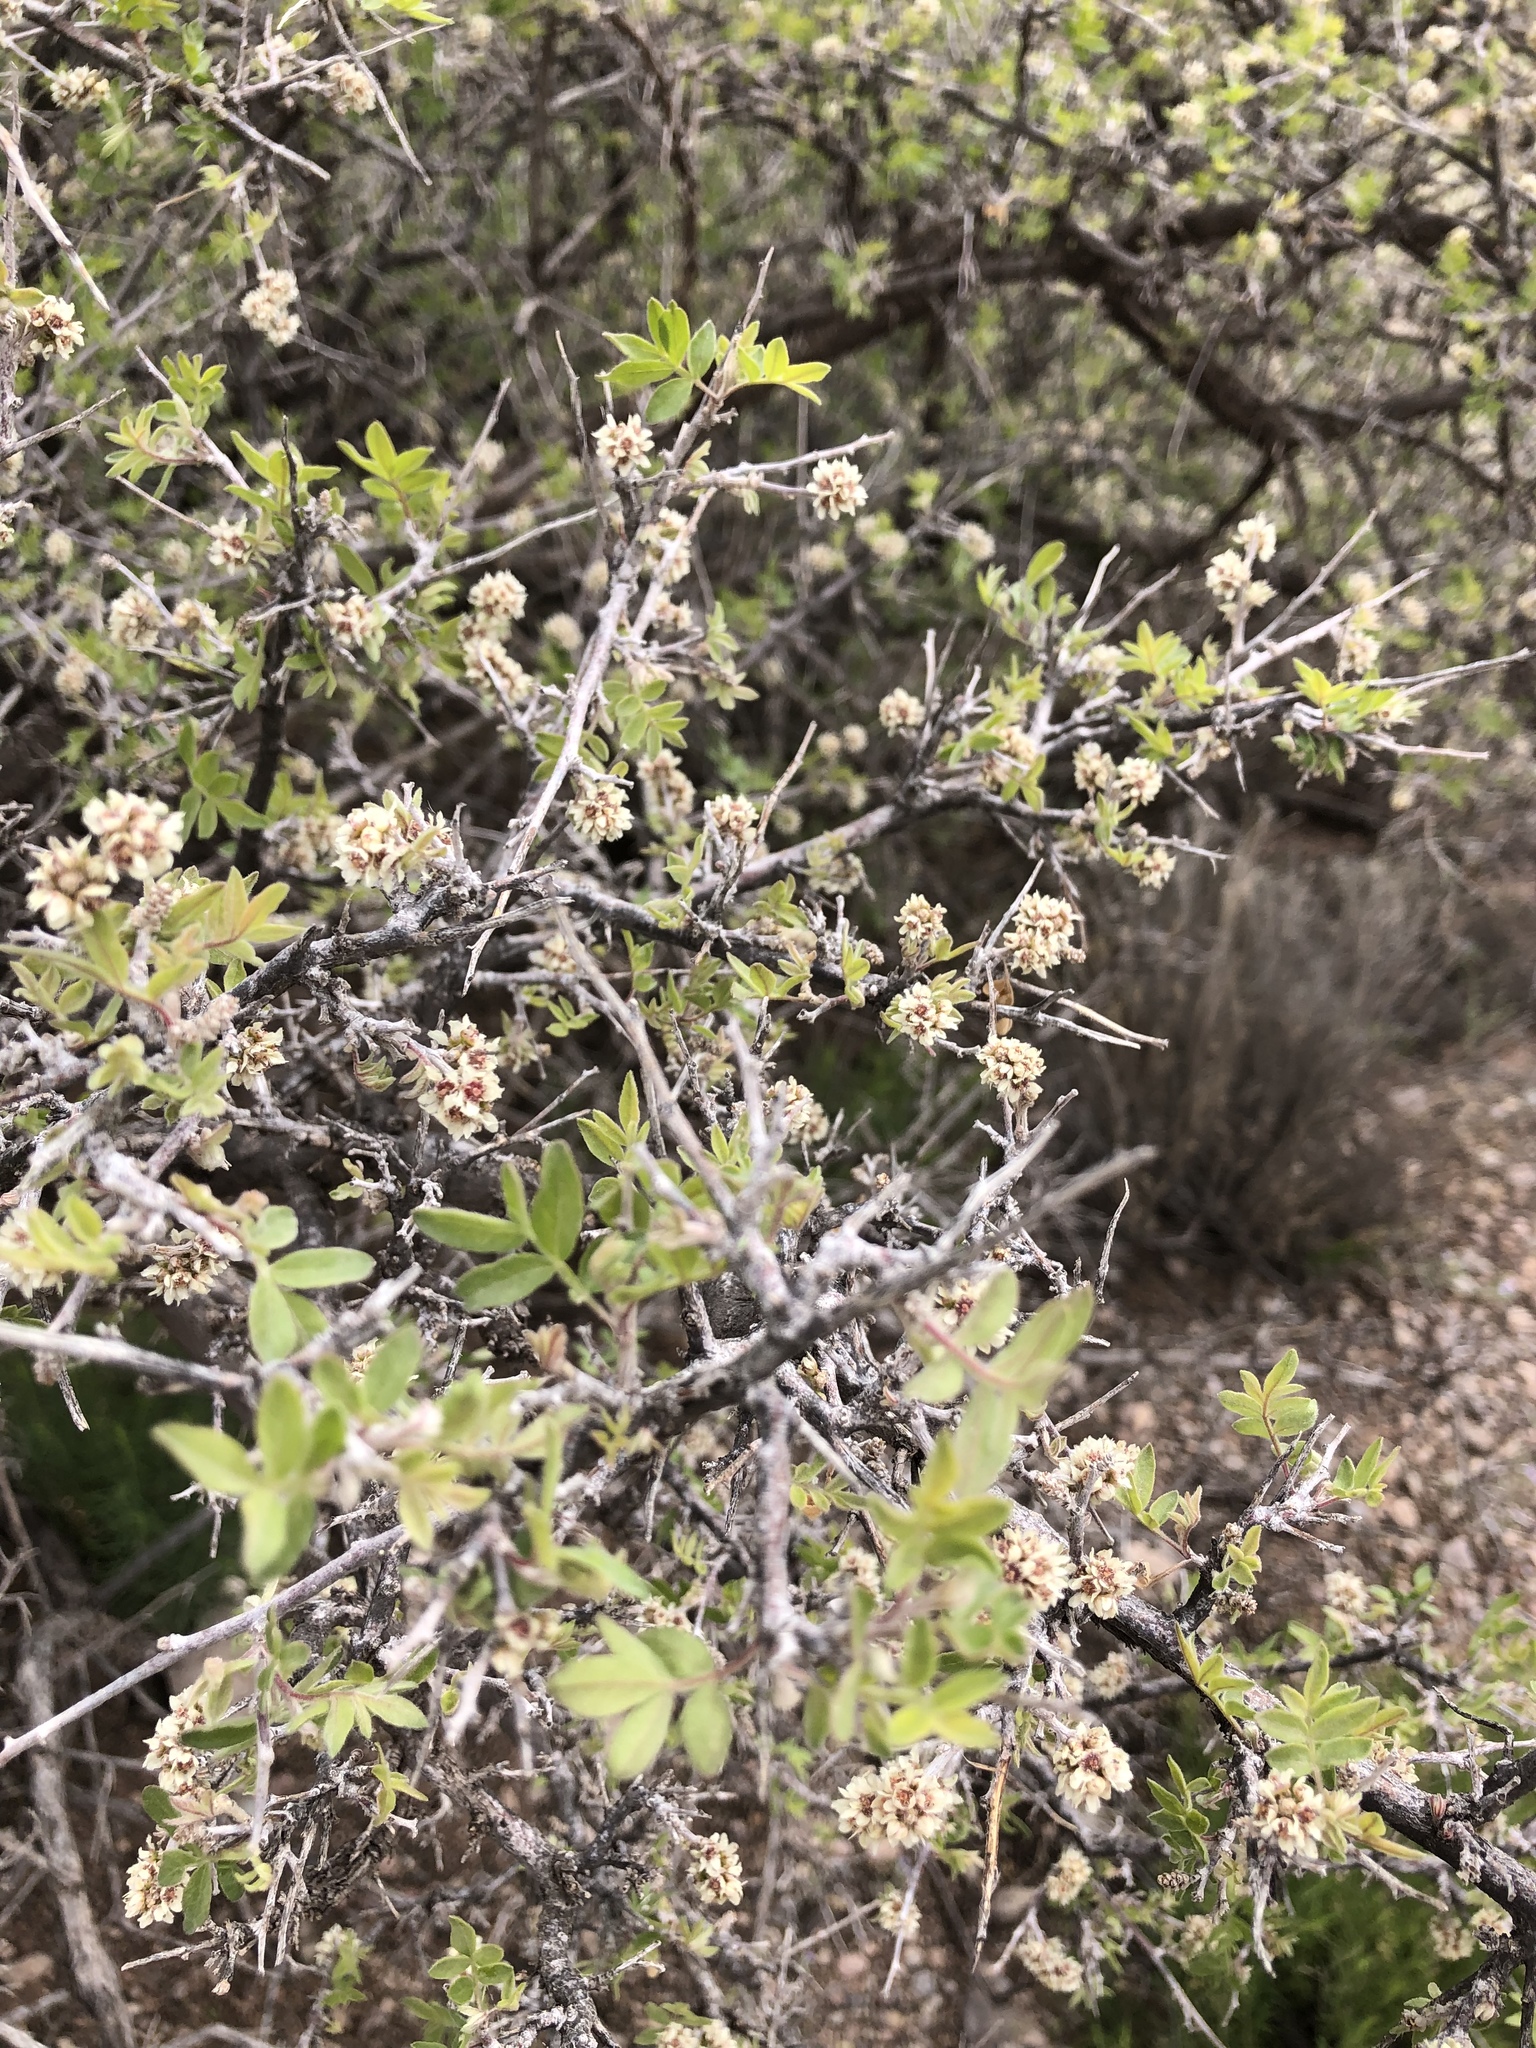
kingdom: Plantae
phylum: Tracheophyta
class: Magnoliopsida
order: Sapindales
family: Anacardiaceae
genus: Rhus
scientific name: Rhus microphylla
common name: Desert sumac
